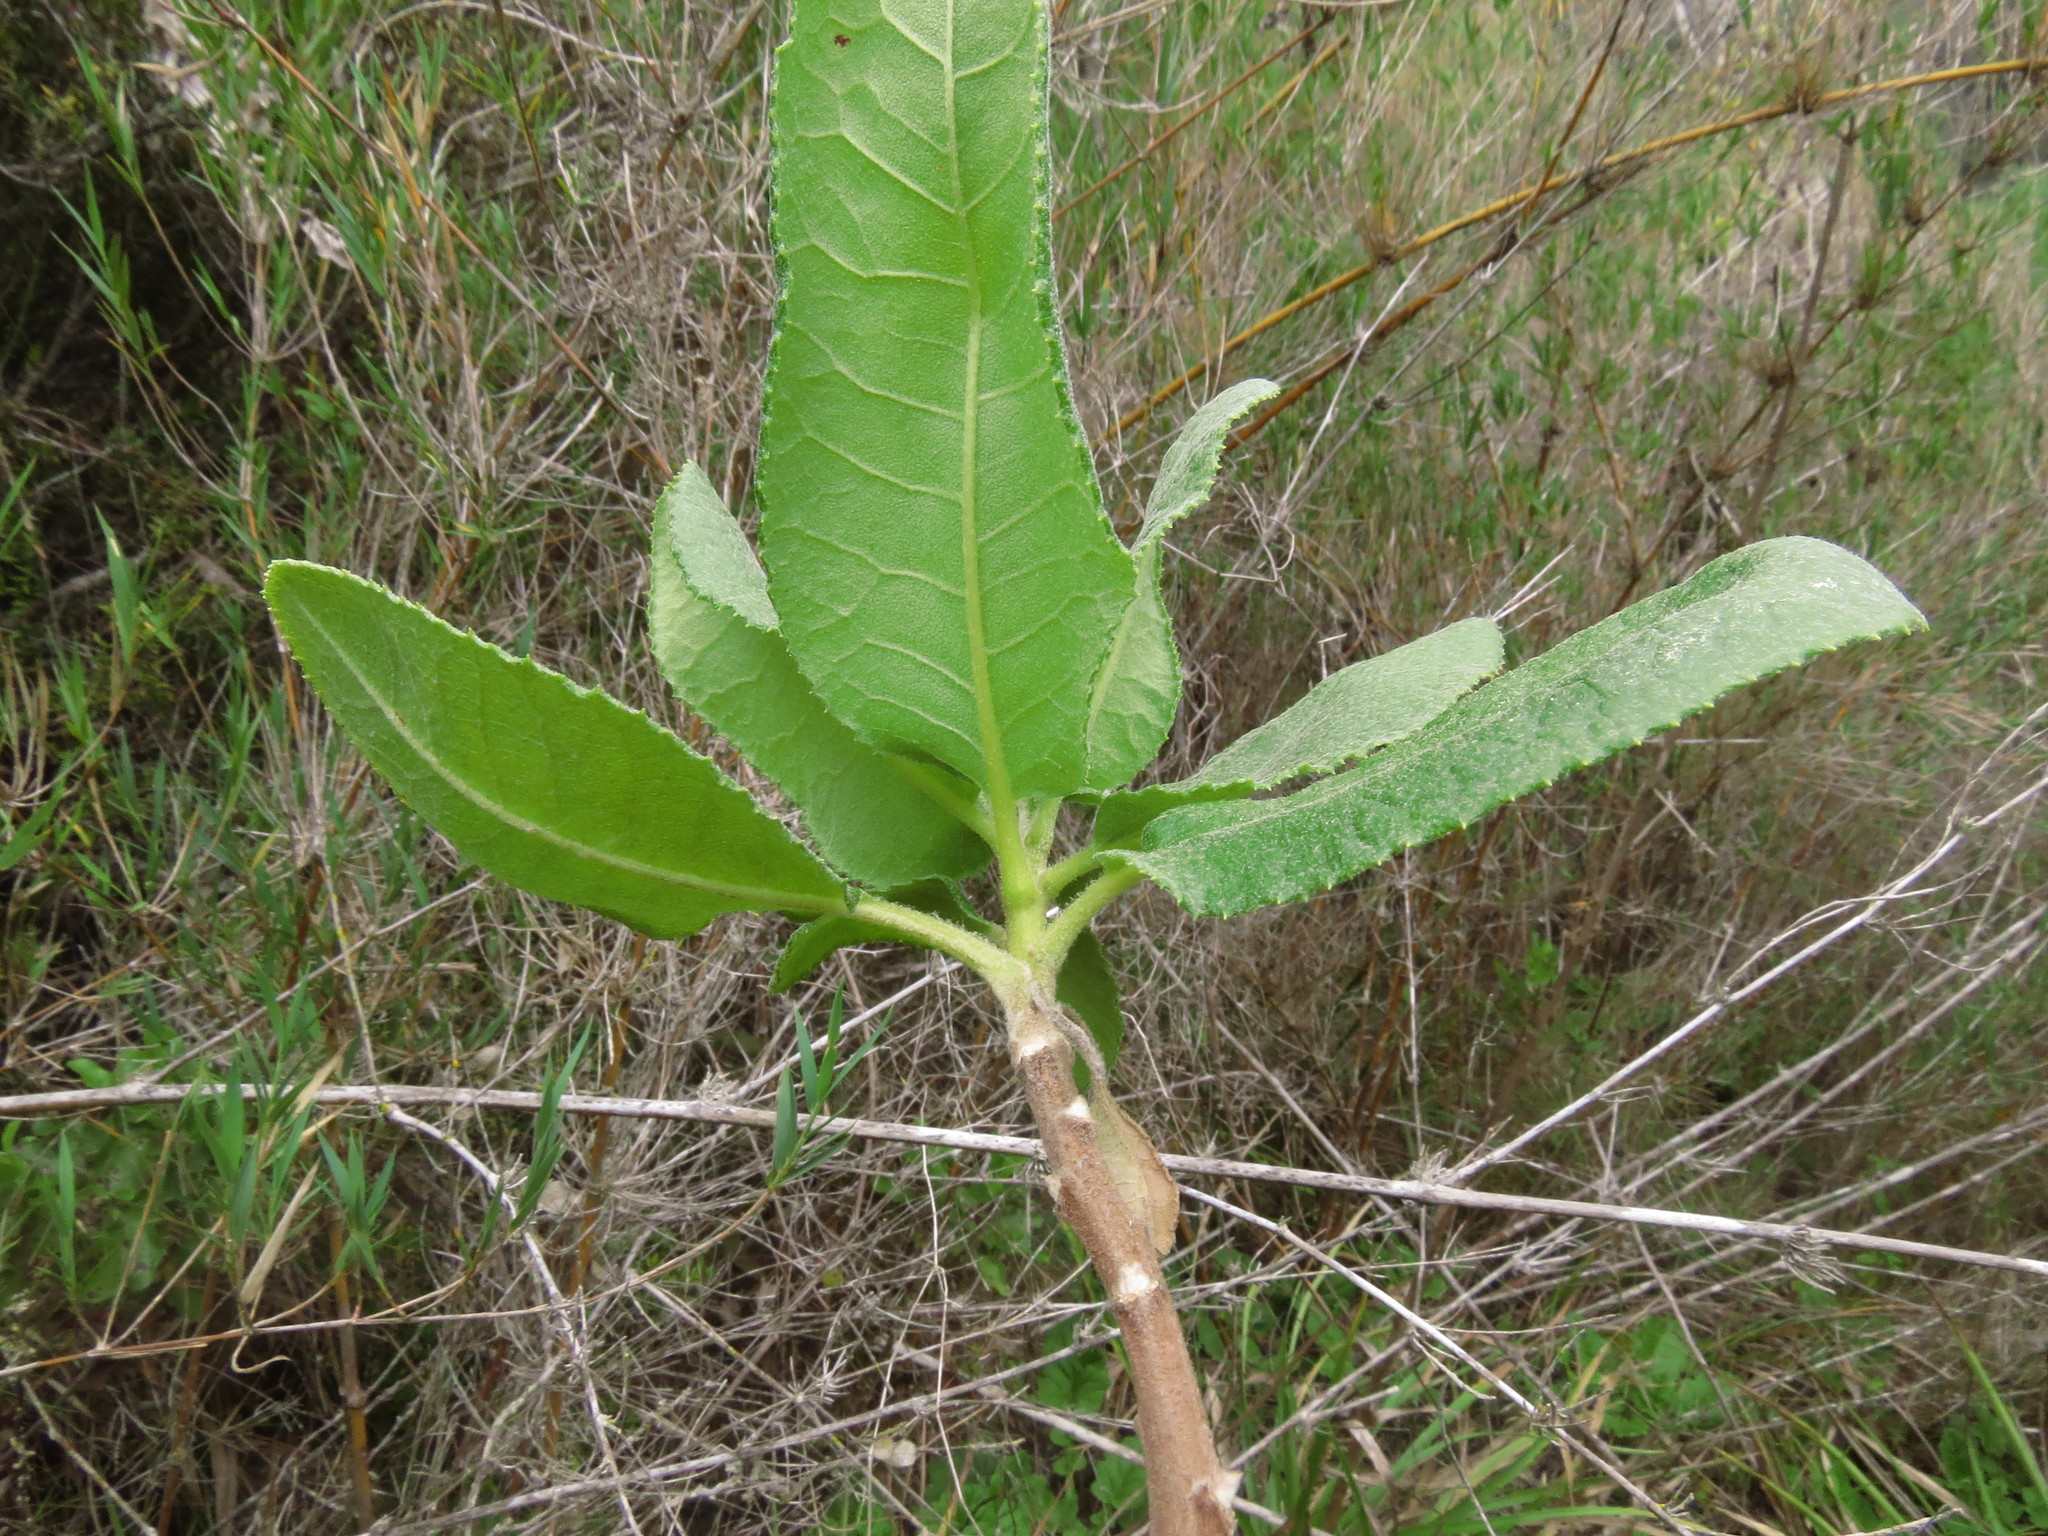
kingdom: Plantae
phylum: Tracheophyta
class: Magnoliopsida
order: Asterales
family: Asteraceae
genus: Acrisione
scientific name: Acrisione denticulata
